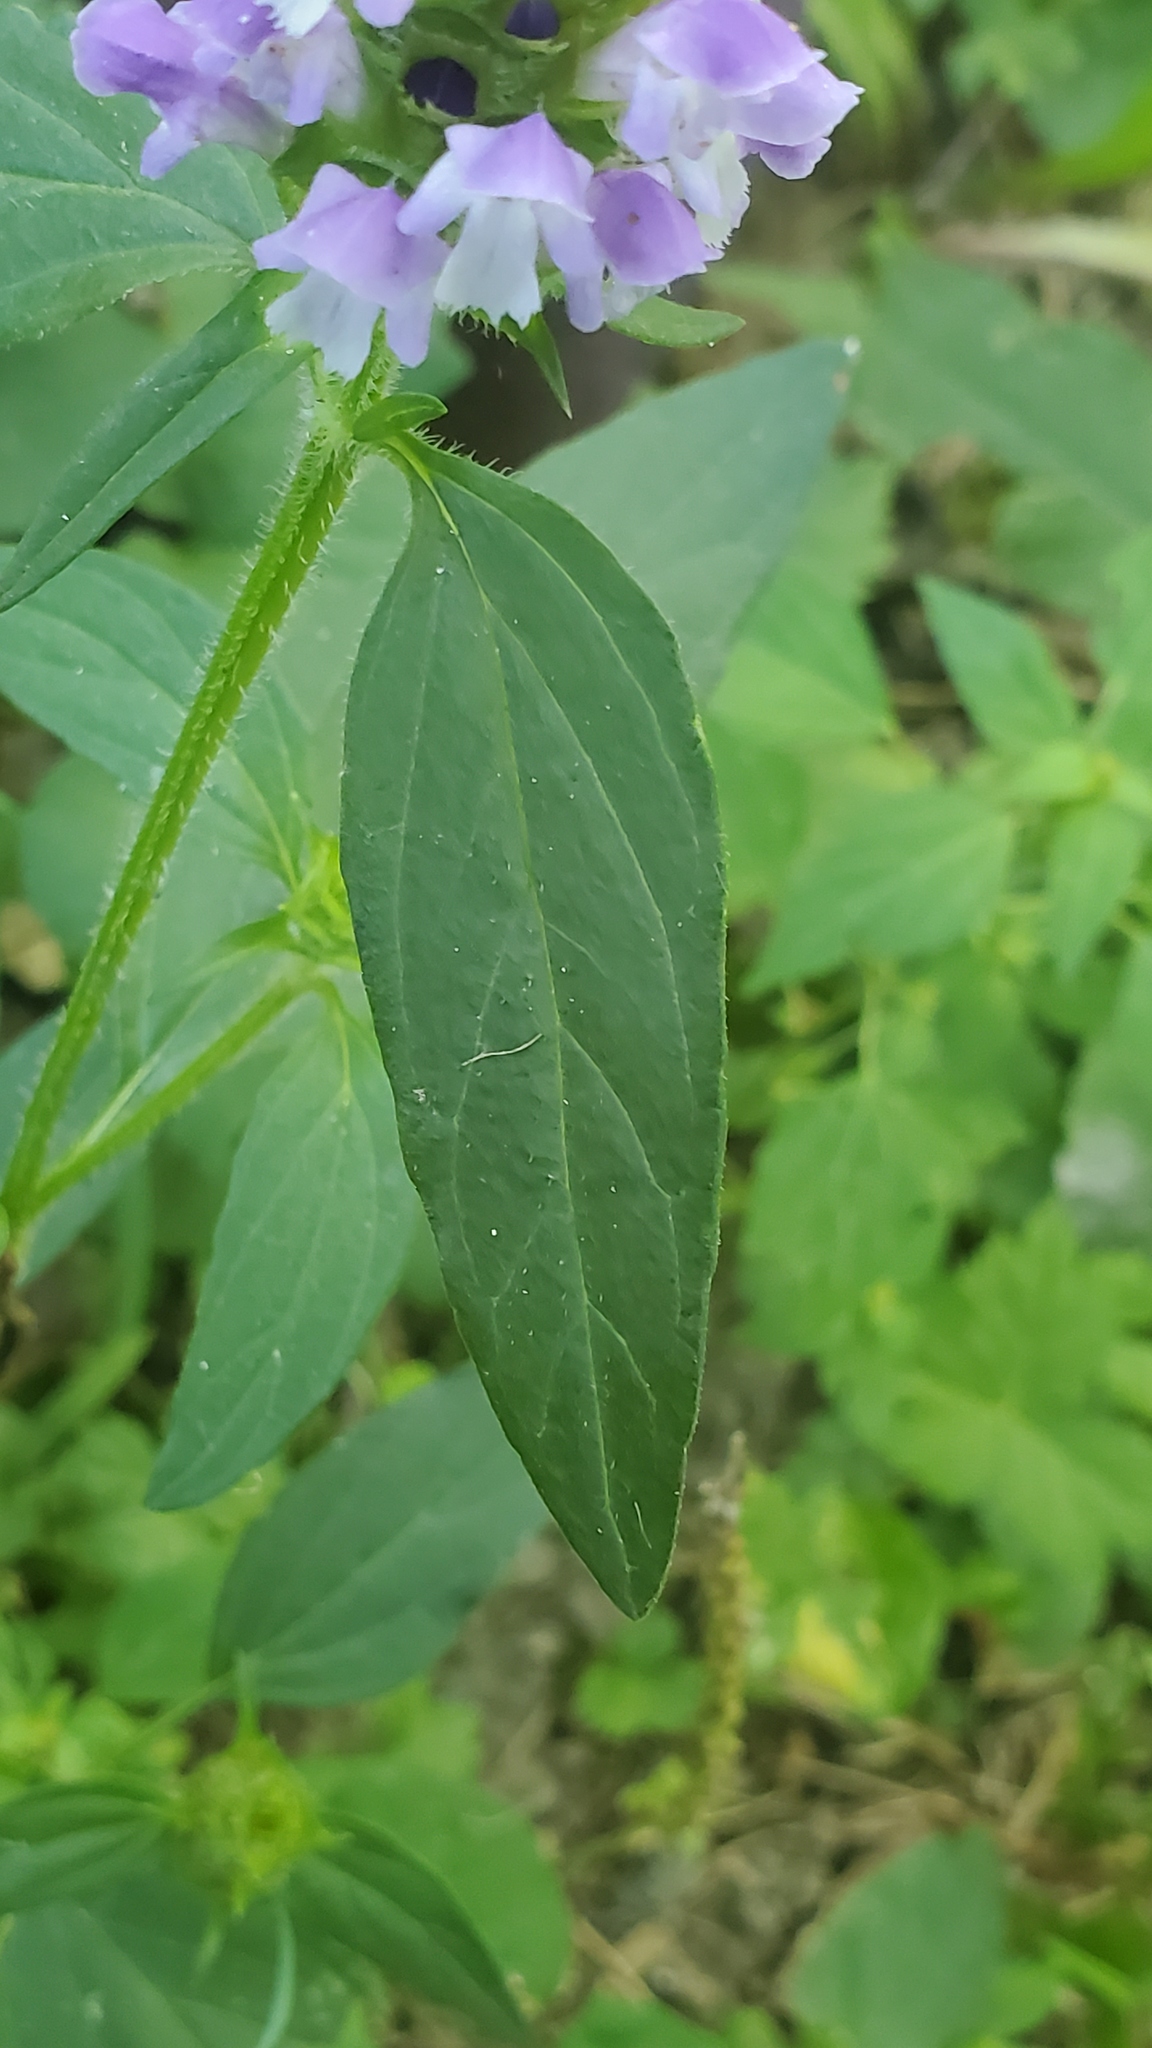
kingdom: Plantae
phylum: Tracheophyta
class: Magnoliopsida
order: Lamiales
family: Lamiaceae
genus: Prunella
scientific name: Prunella vulgaris
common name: Heal-all
